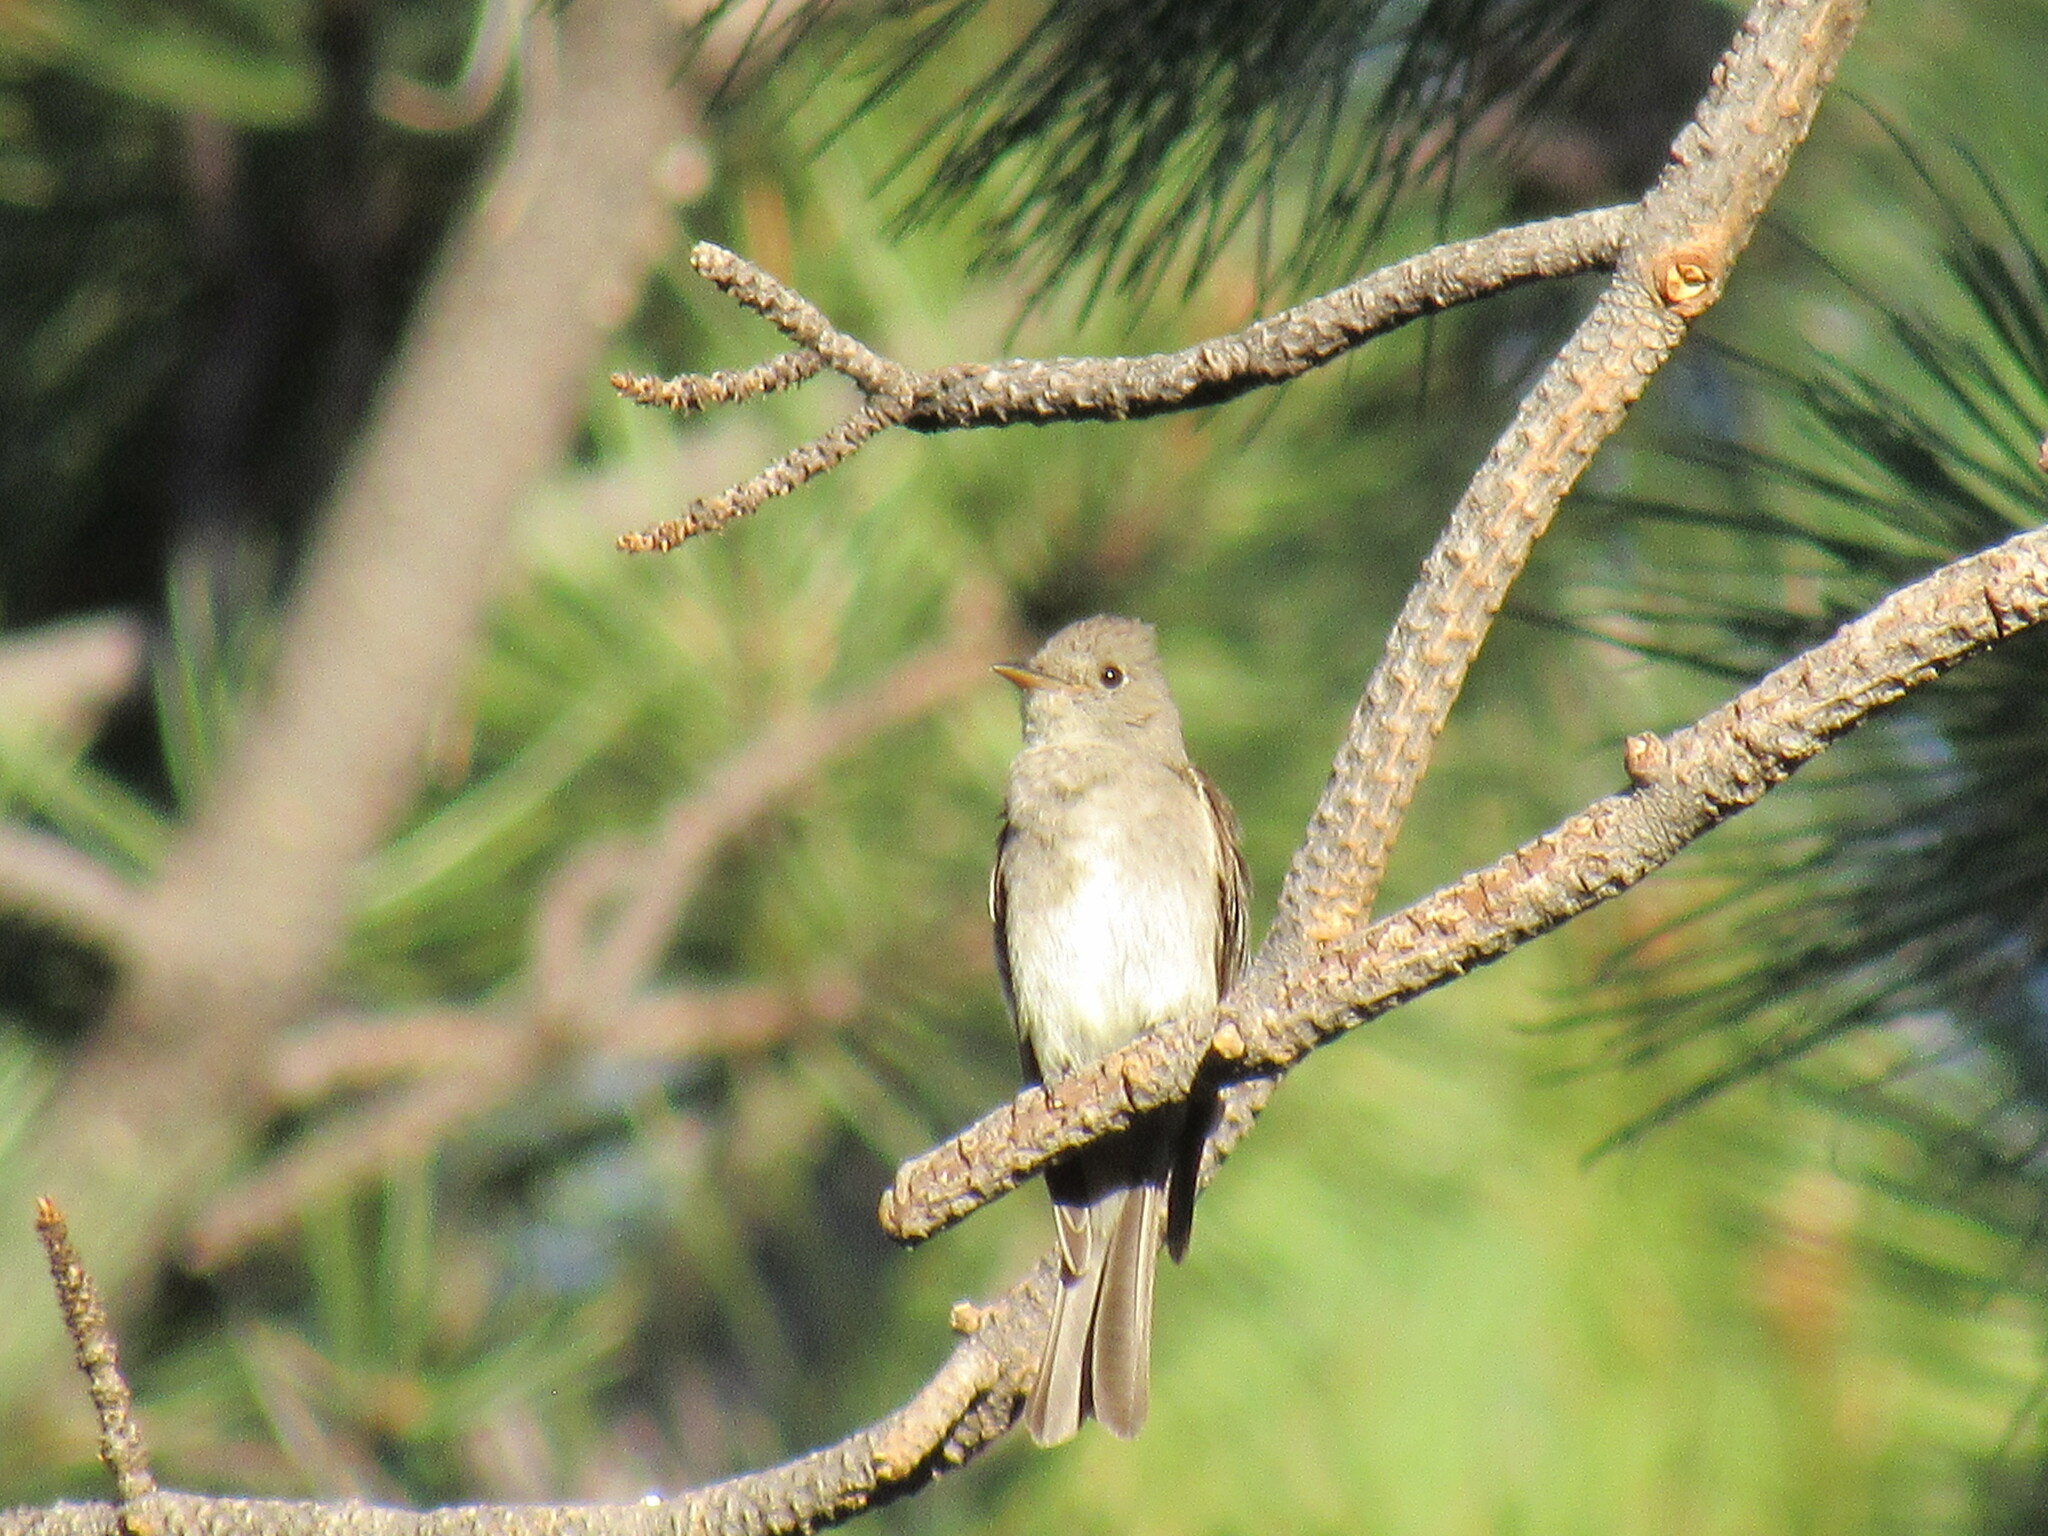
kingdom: Animalia
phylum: Chordata
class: Aves
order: Passeriformes
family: Tyrannidae
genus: Contopus
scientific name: Contopus pertinax
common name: Greater pewee
